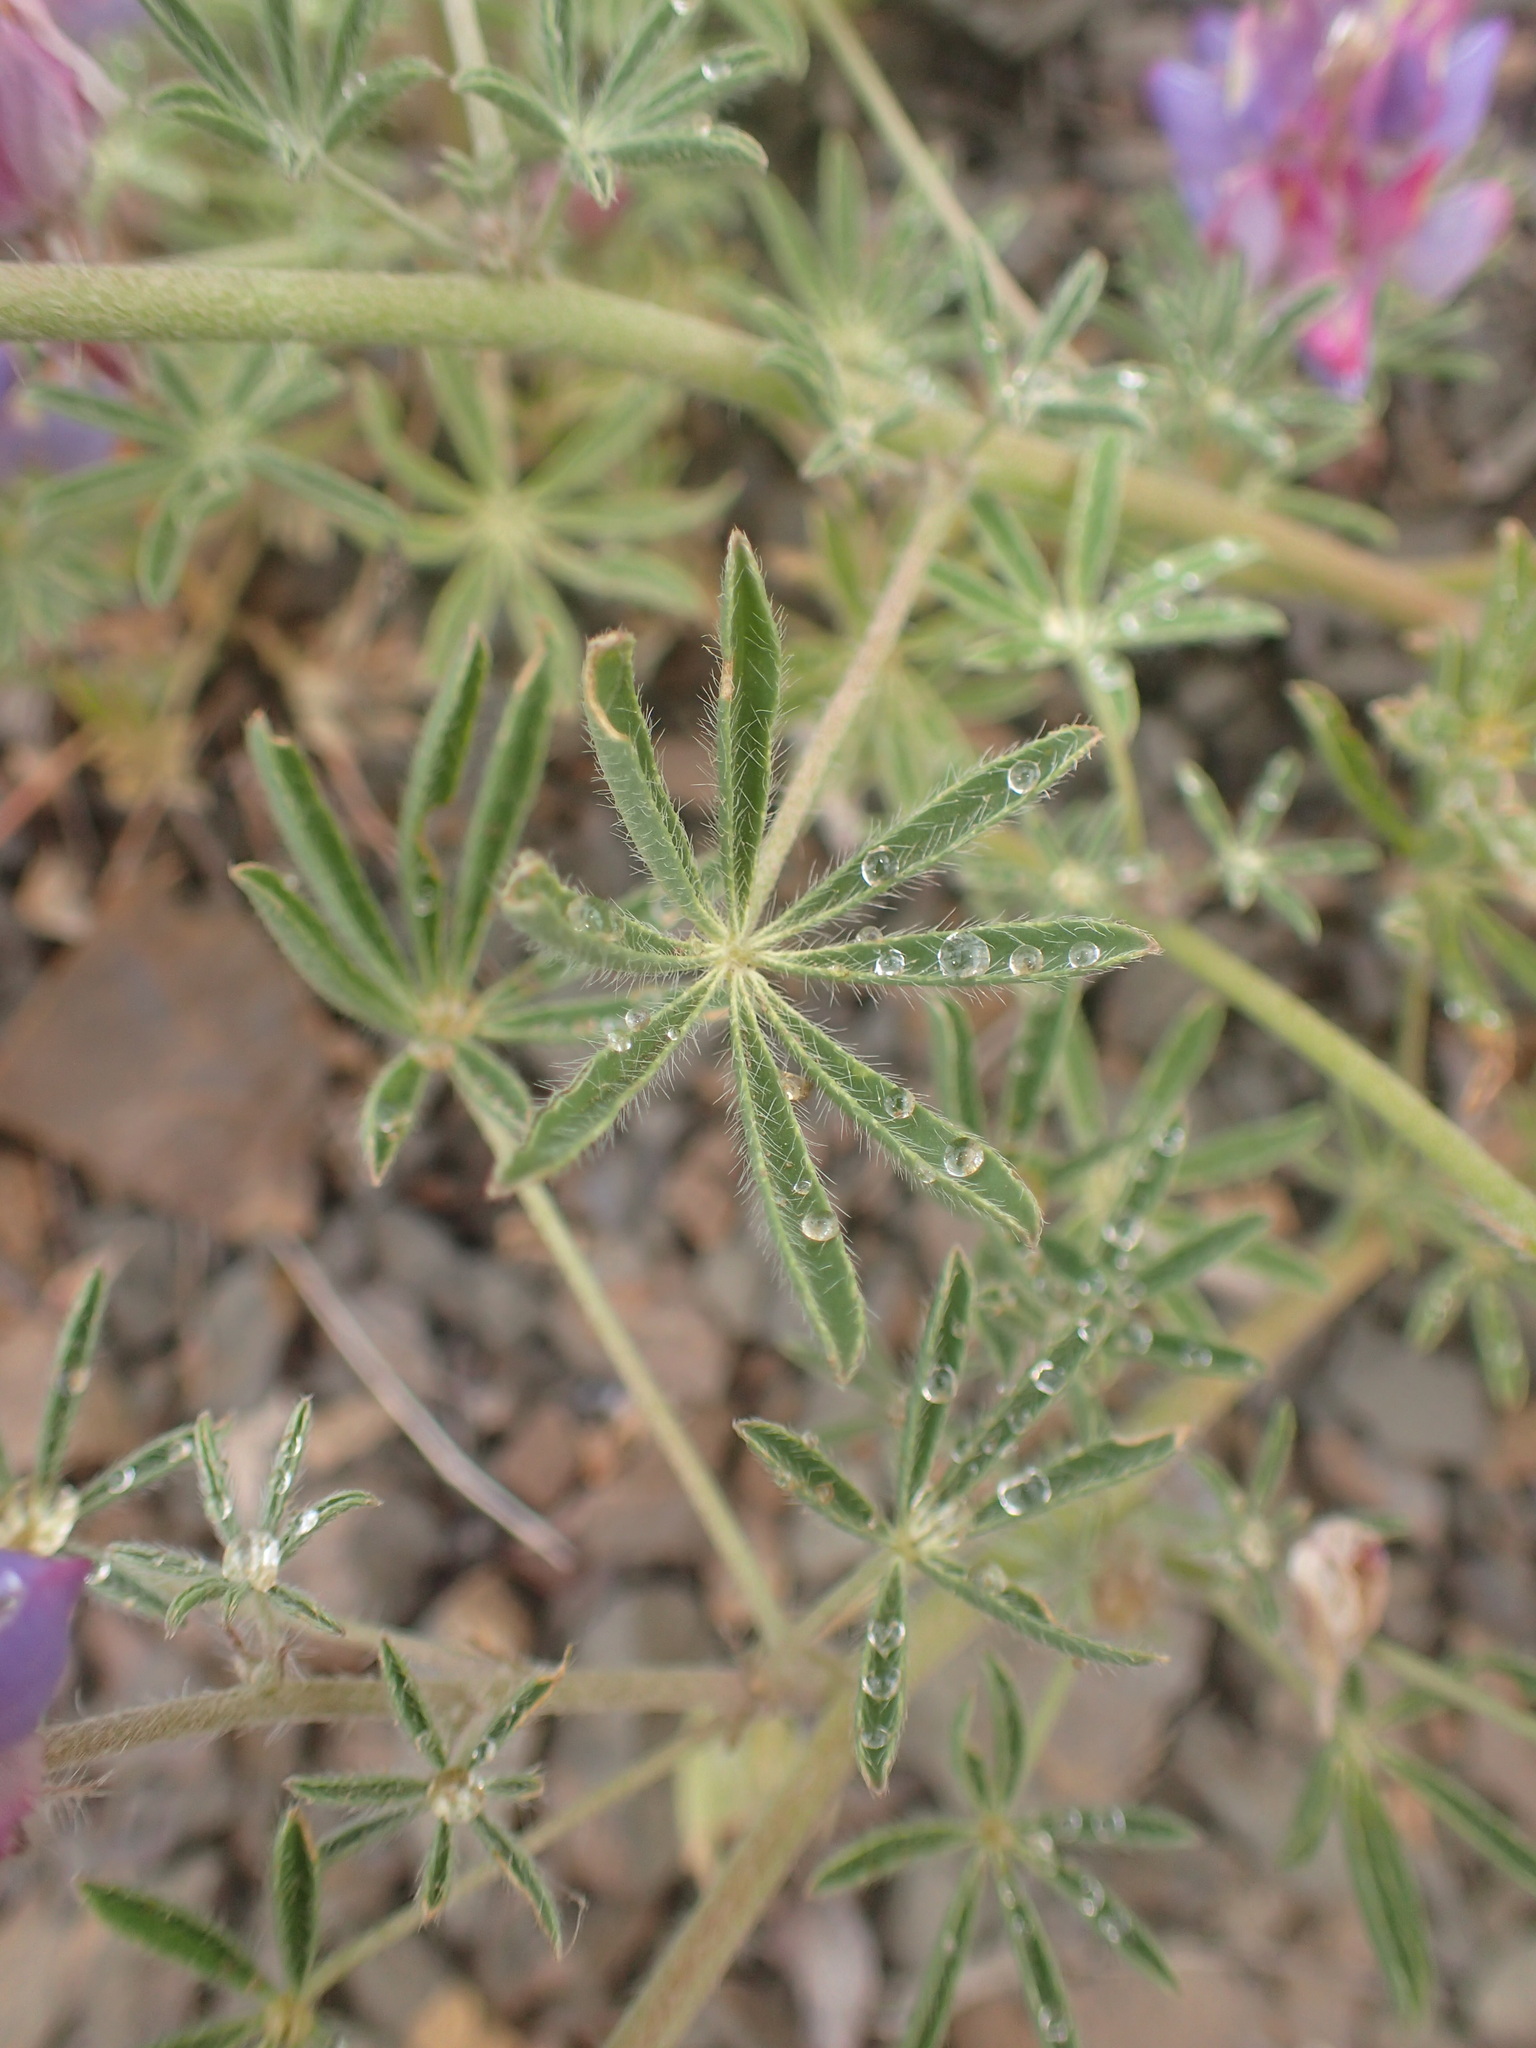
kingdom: Plantae
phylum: Tracheophyta
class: Magnoliopsida
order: Fabales
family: Fabaceae
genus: Lupinus
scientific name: Lupinus sparsiflorus
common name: Coulter's lupine
